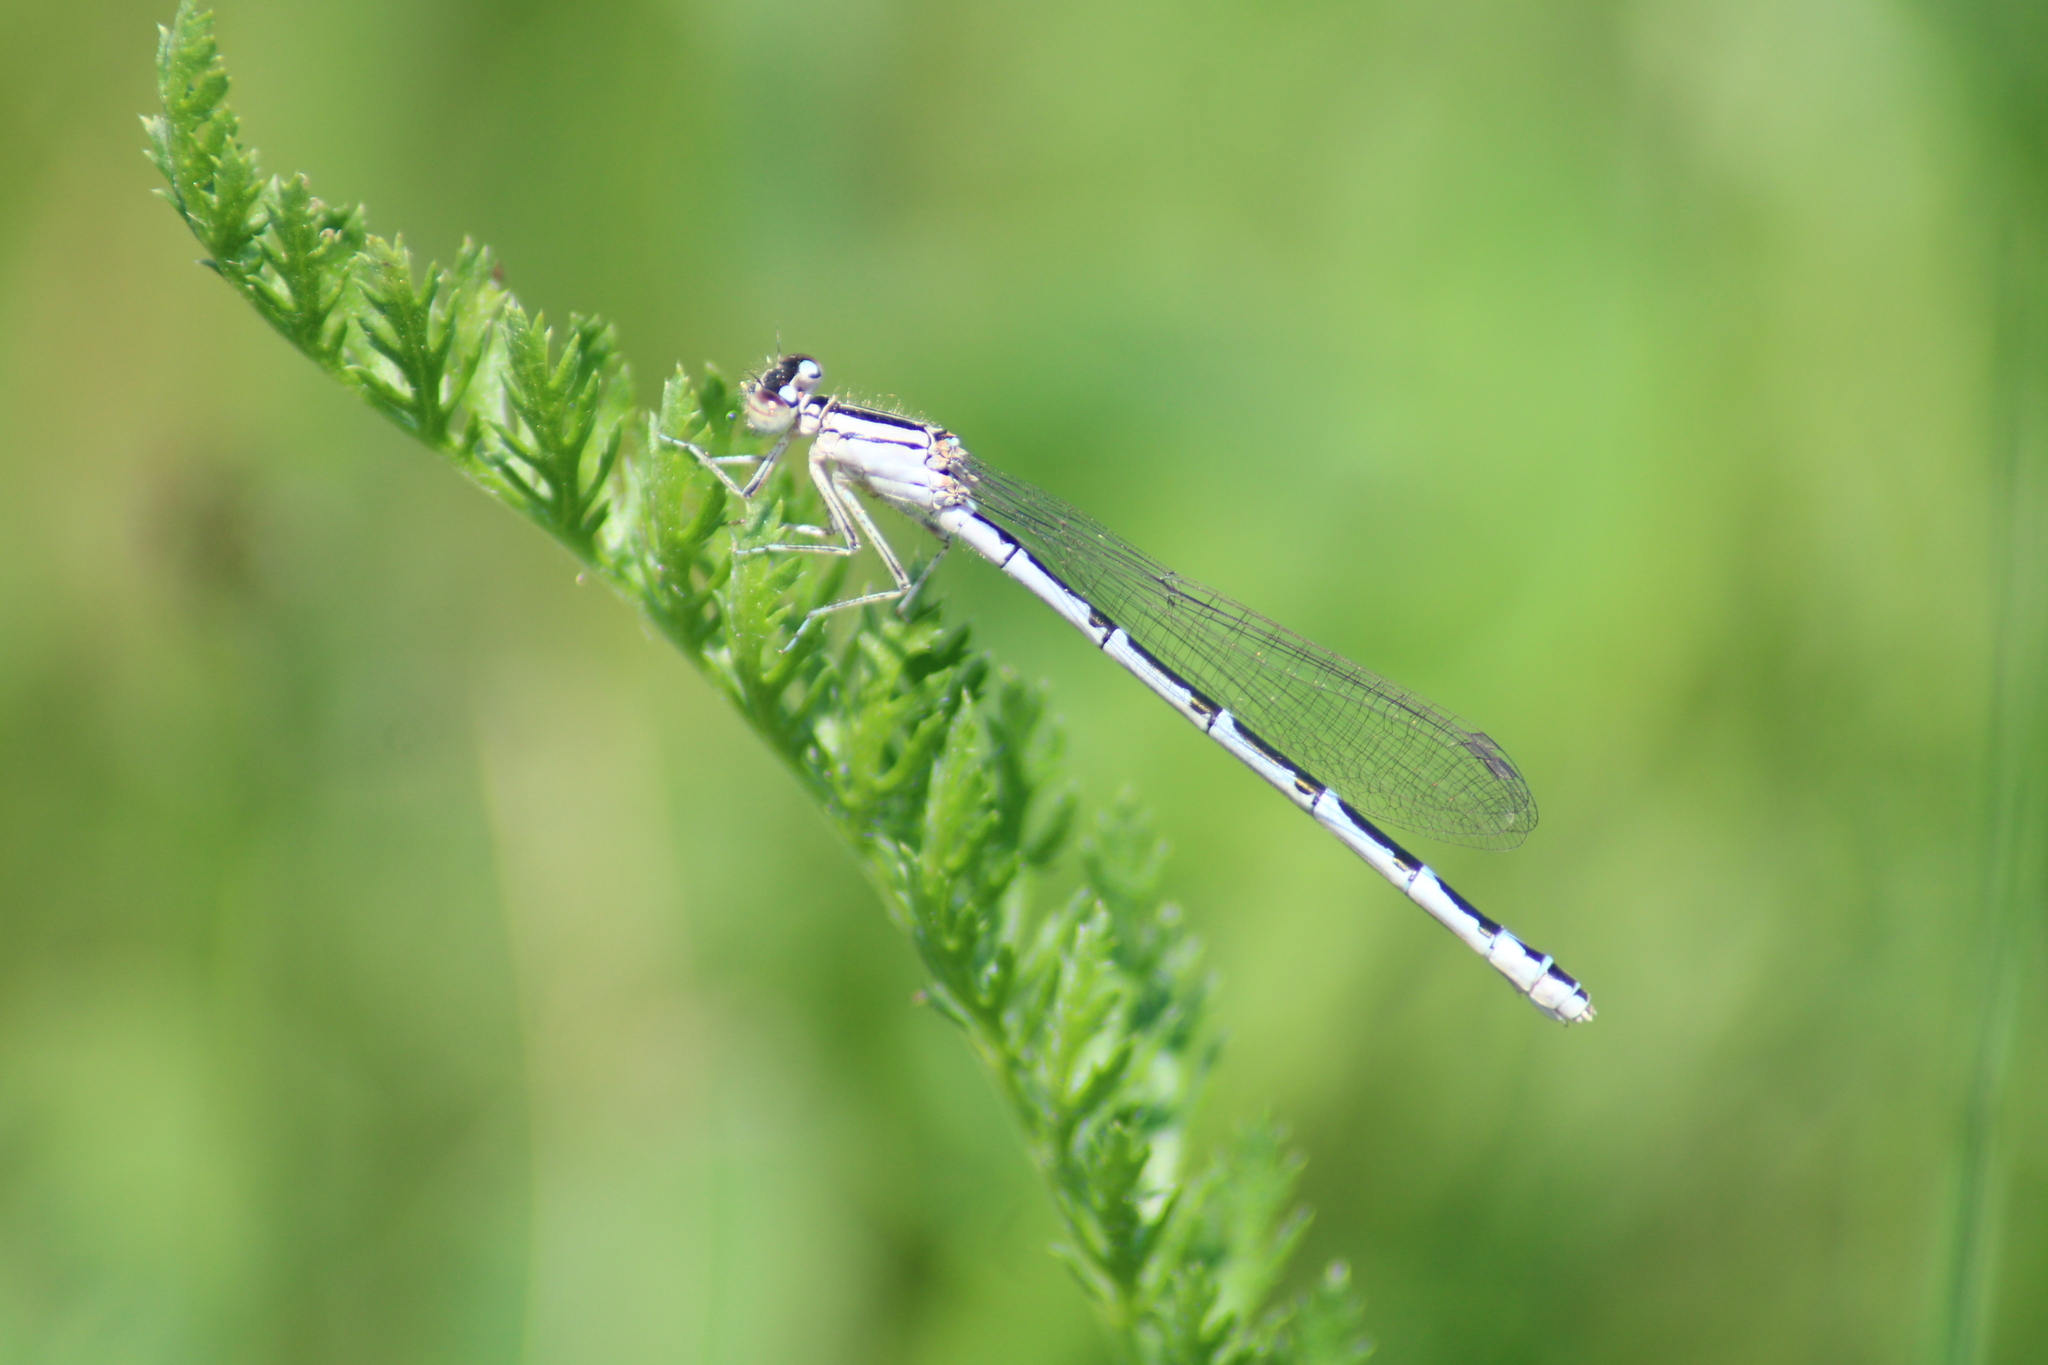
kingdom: Animalia
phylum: Arthropoda
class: Insecta
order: Odonata
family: Coenagrionidae
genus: Enallagma
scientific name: Enallagma cyathigerum
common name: Common blue damselfly
